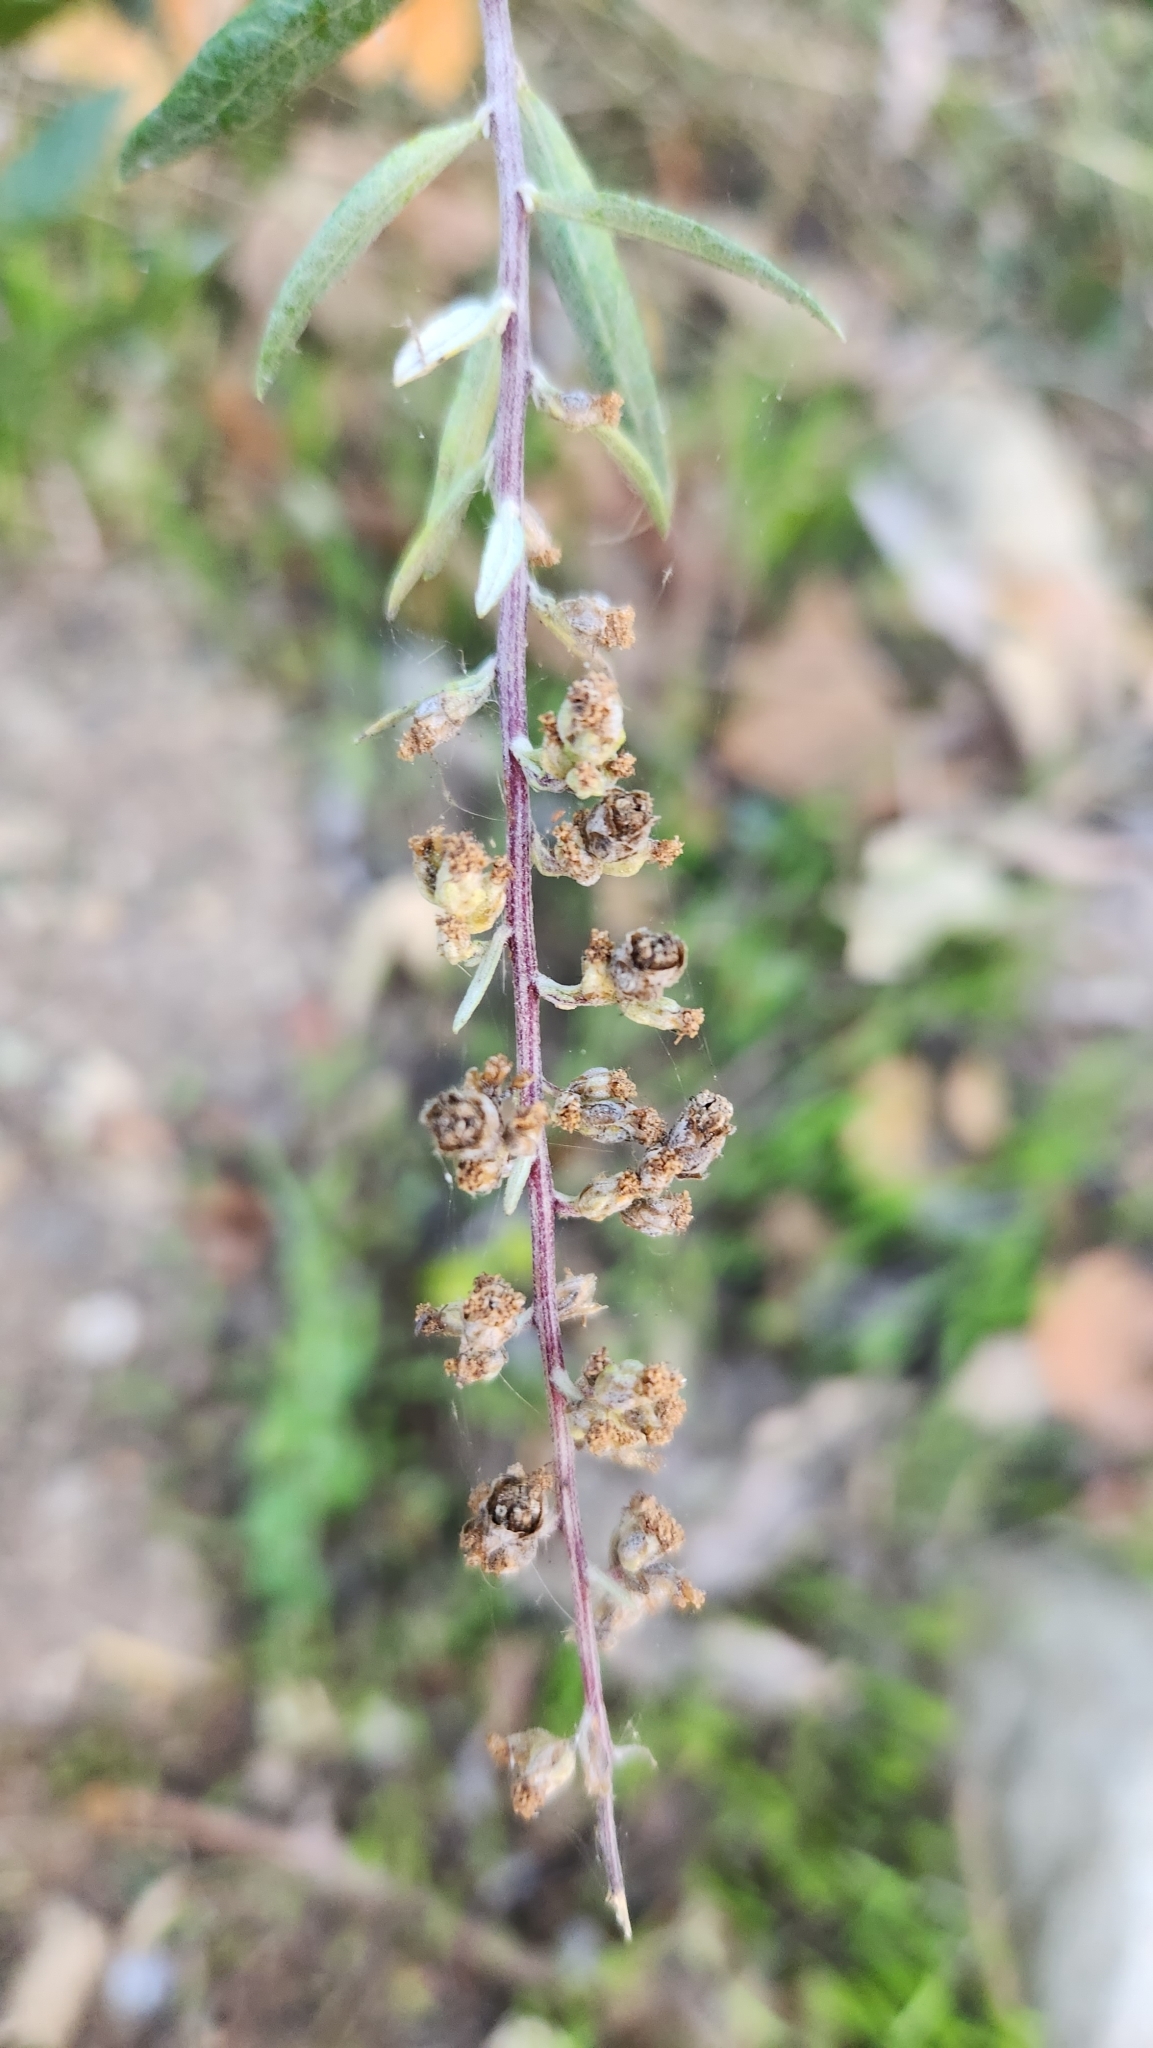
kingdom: Plantae
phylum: Tracheophyta
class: Magnoliopsida
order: Asterales
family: Asteraceae
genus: Artemisia
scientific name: Artemisia douglasiana
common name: Northwest mugwort
